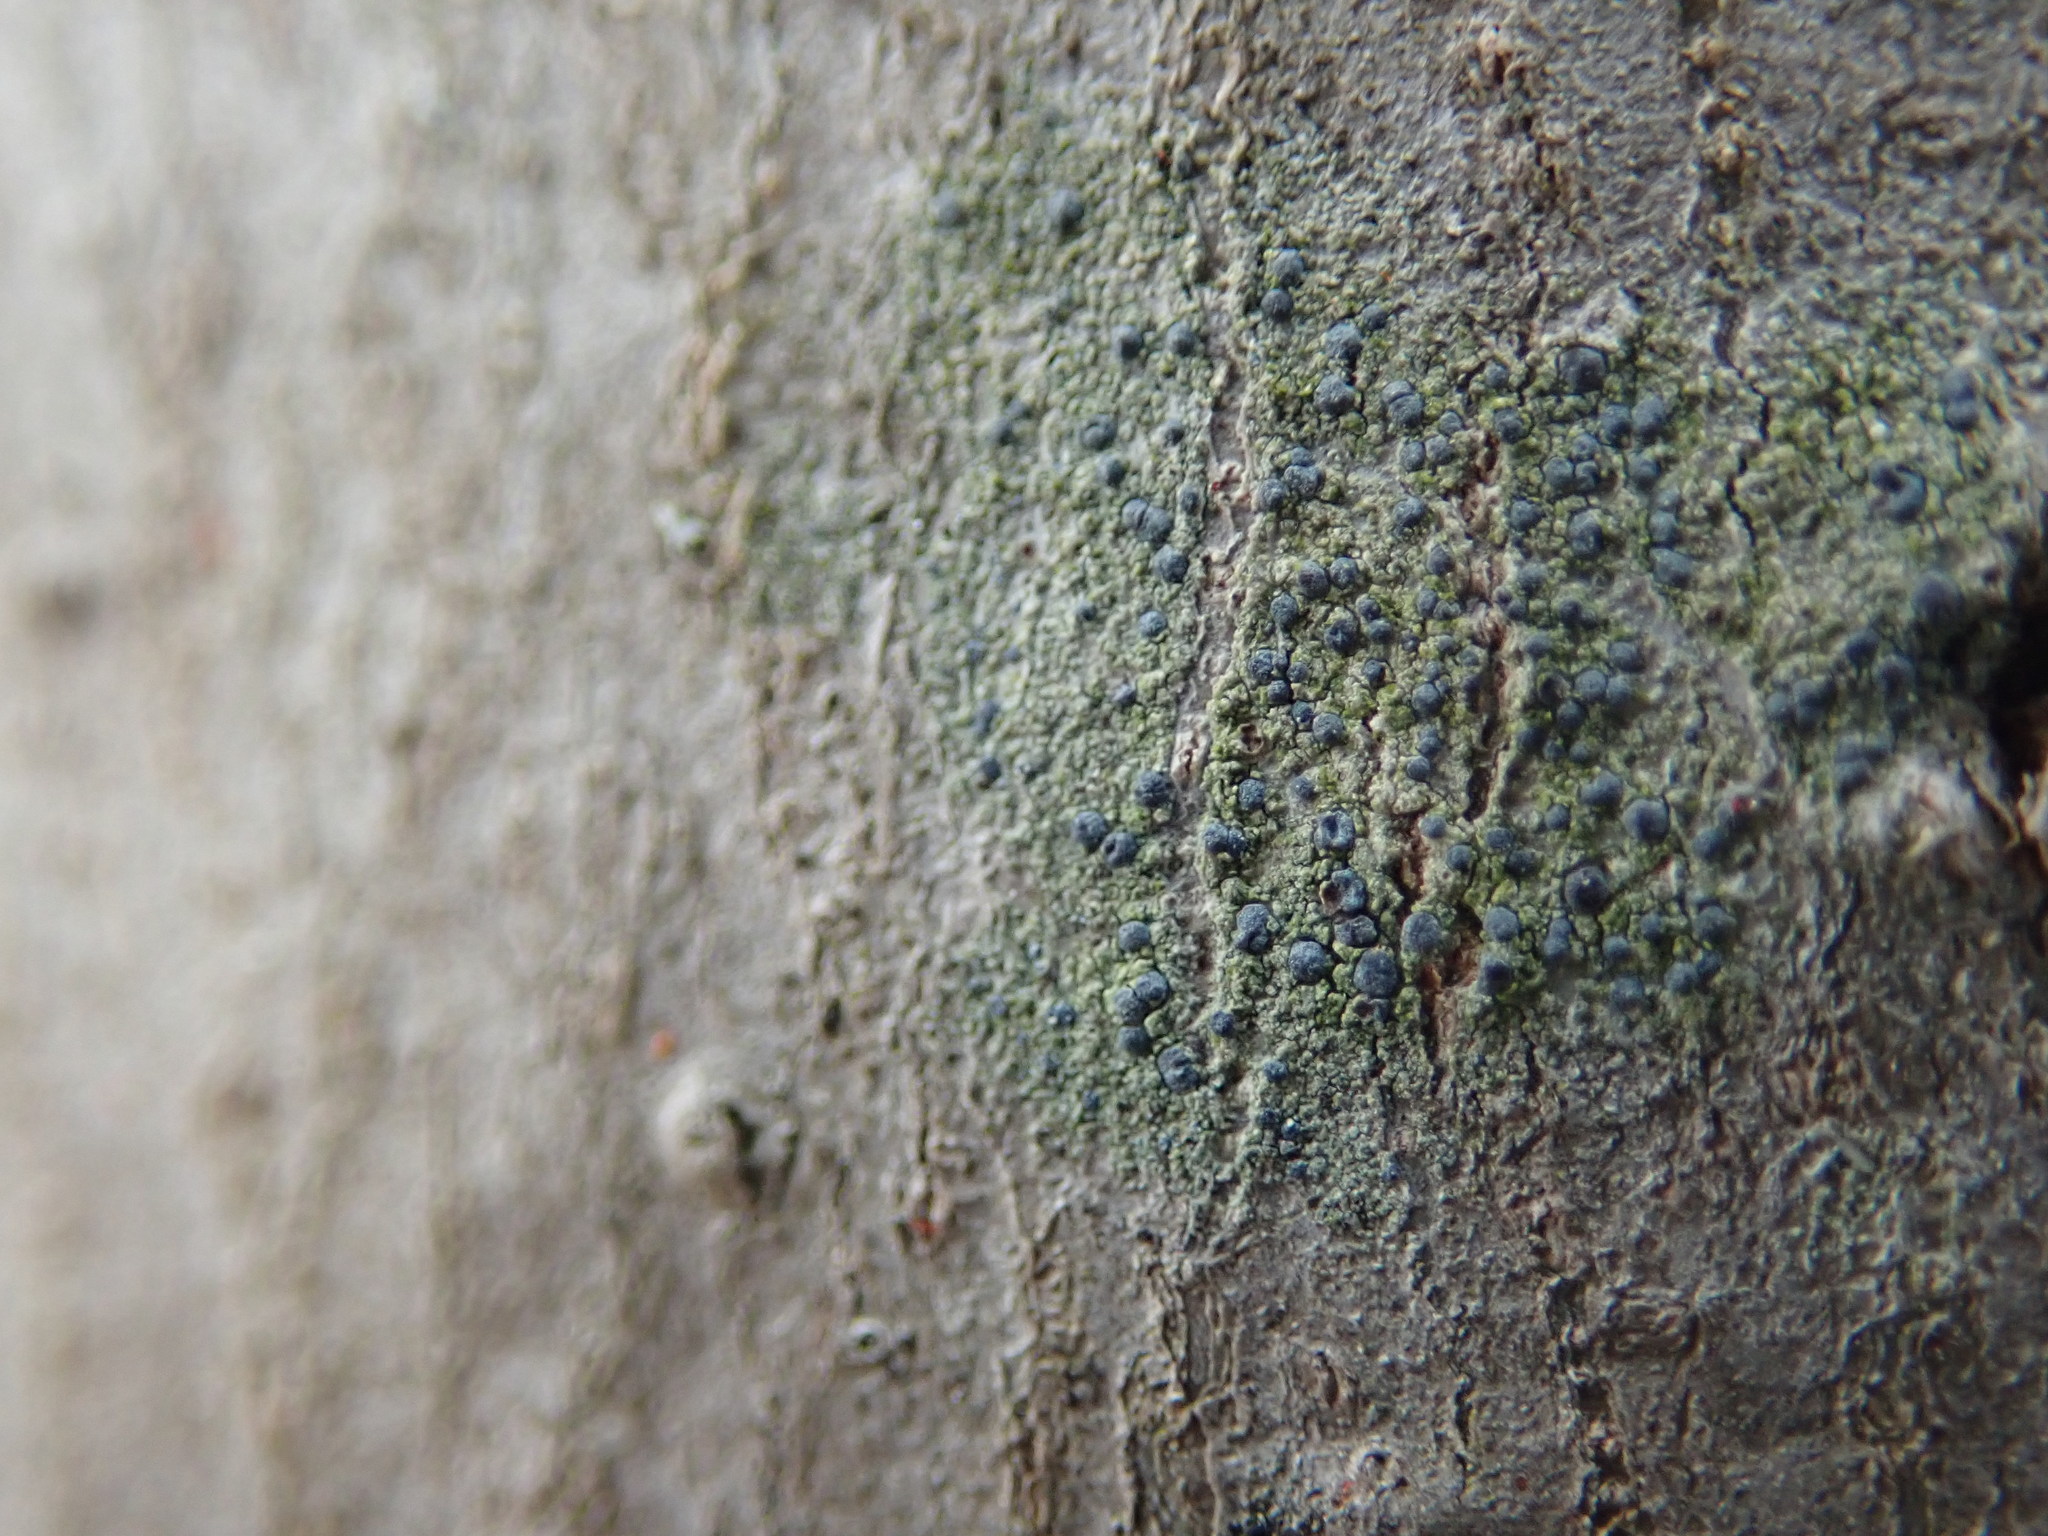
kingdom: Fungi
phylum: Ascomycota
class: Arthoniomycetes
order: Arthoniales
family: Chrysotrichaceae
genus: Chrysothrix
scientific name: Chrysothrix caesia
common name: Frosted comma lichen
